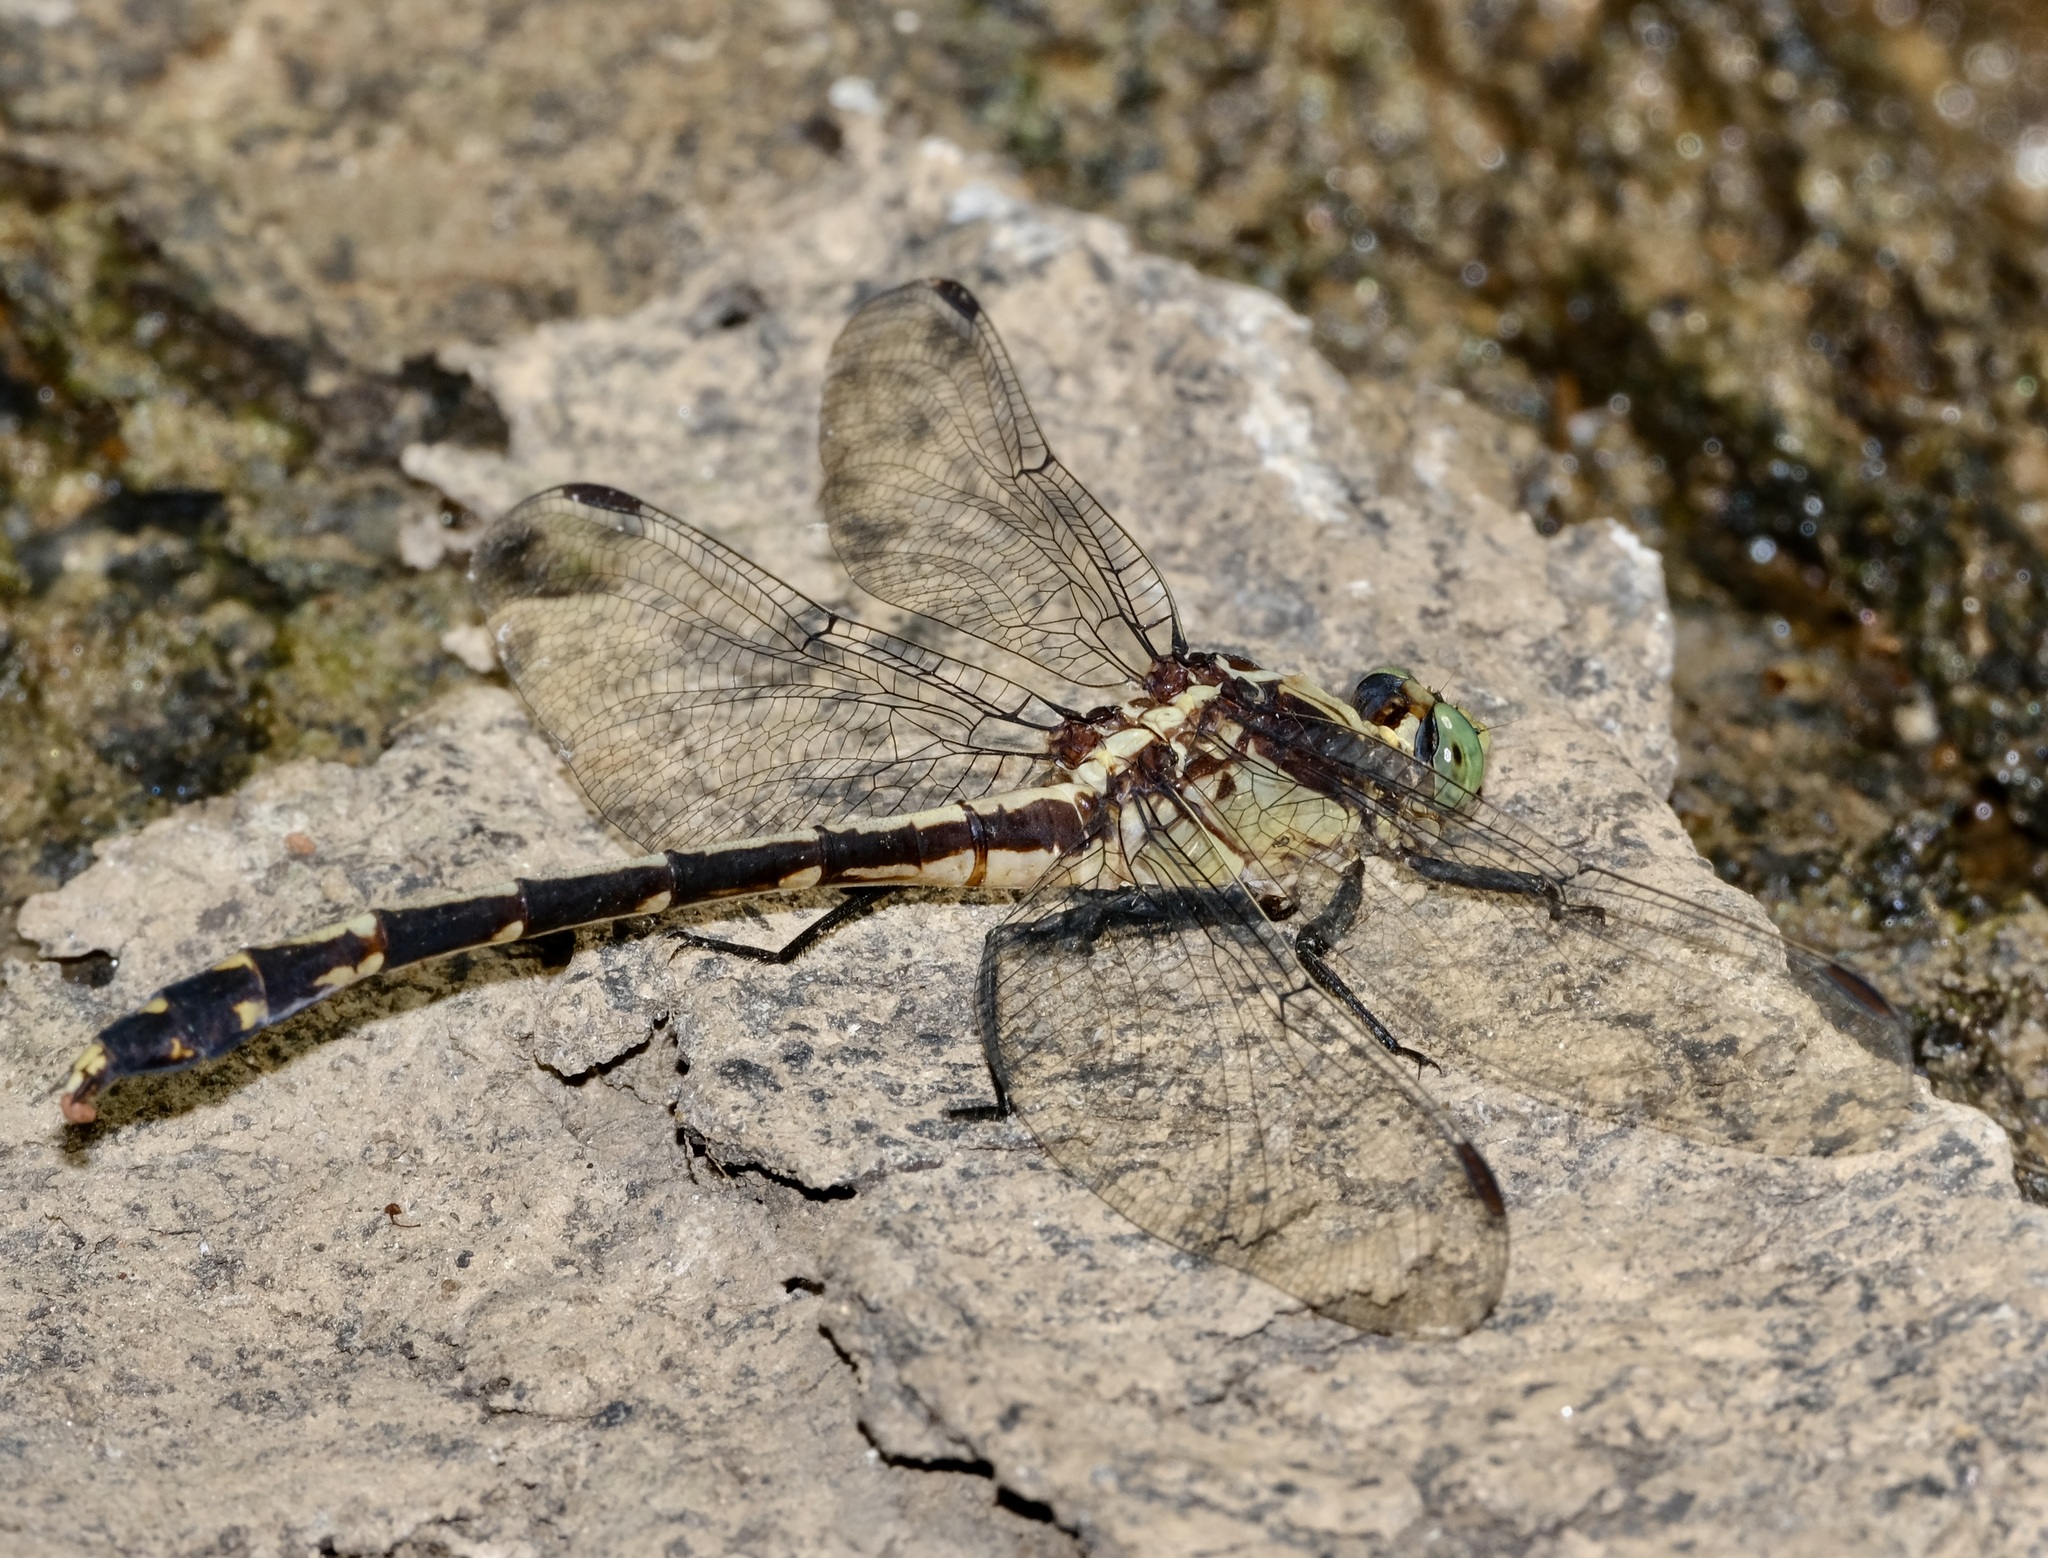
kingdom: Animalia
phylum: Arthropoda
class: Insecta
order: Odonata
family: Gomphidae
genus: Dromogomphus
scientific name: Dromogomphus spinosus
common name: Black-shouldered spinyleg
